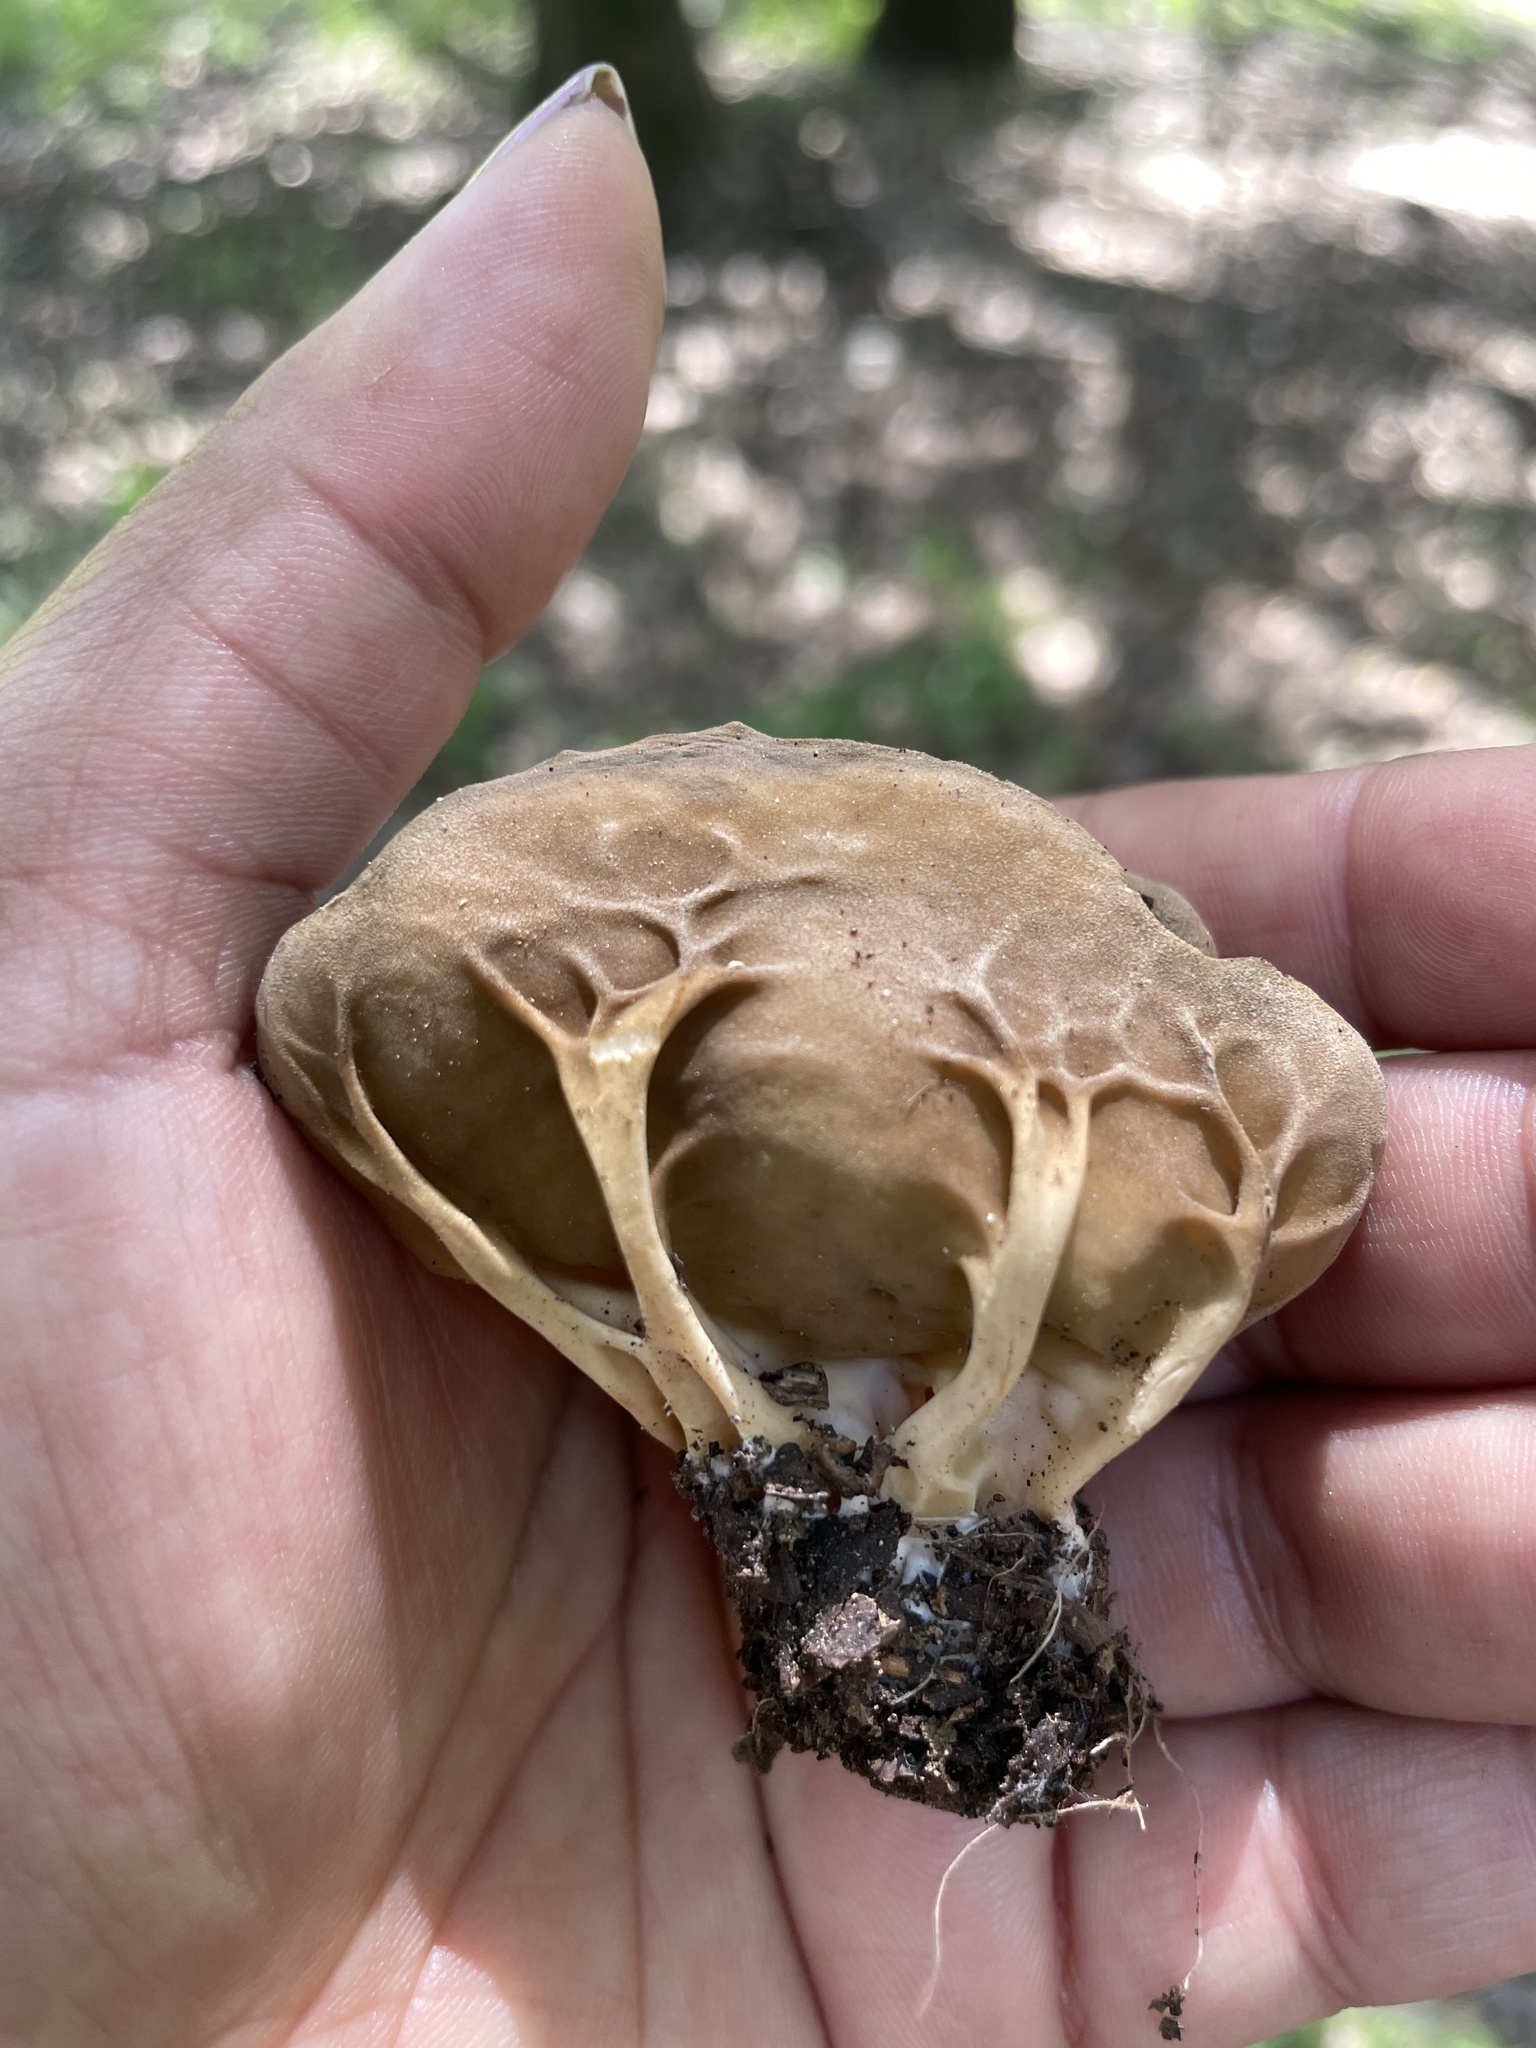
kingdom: Fungi
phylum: Ascomycota
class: Pezizomycetes
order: Pezizales
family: Helvellaceae
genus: Helvella
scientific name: Helvella acetabulum
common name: Vinegar cup
